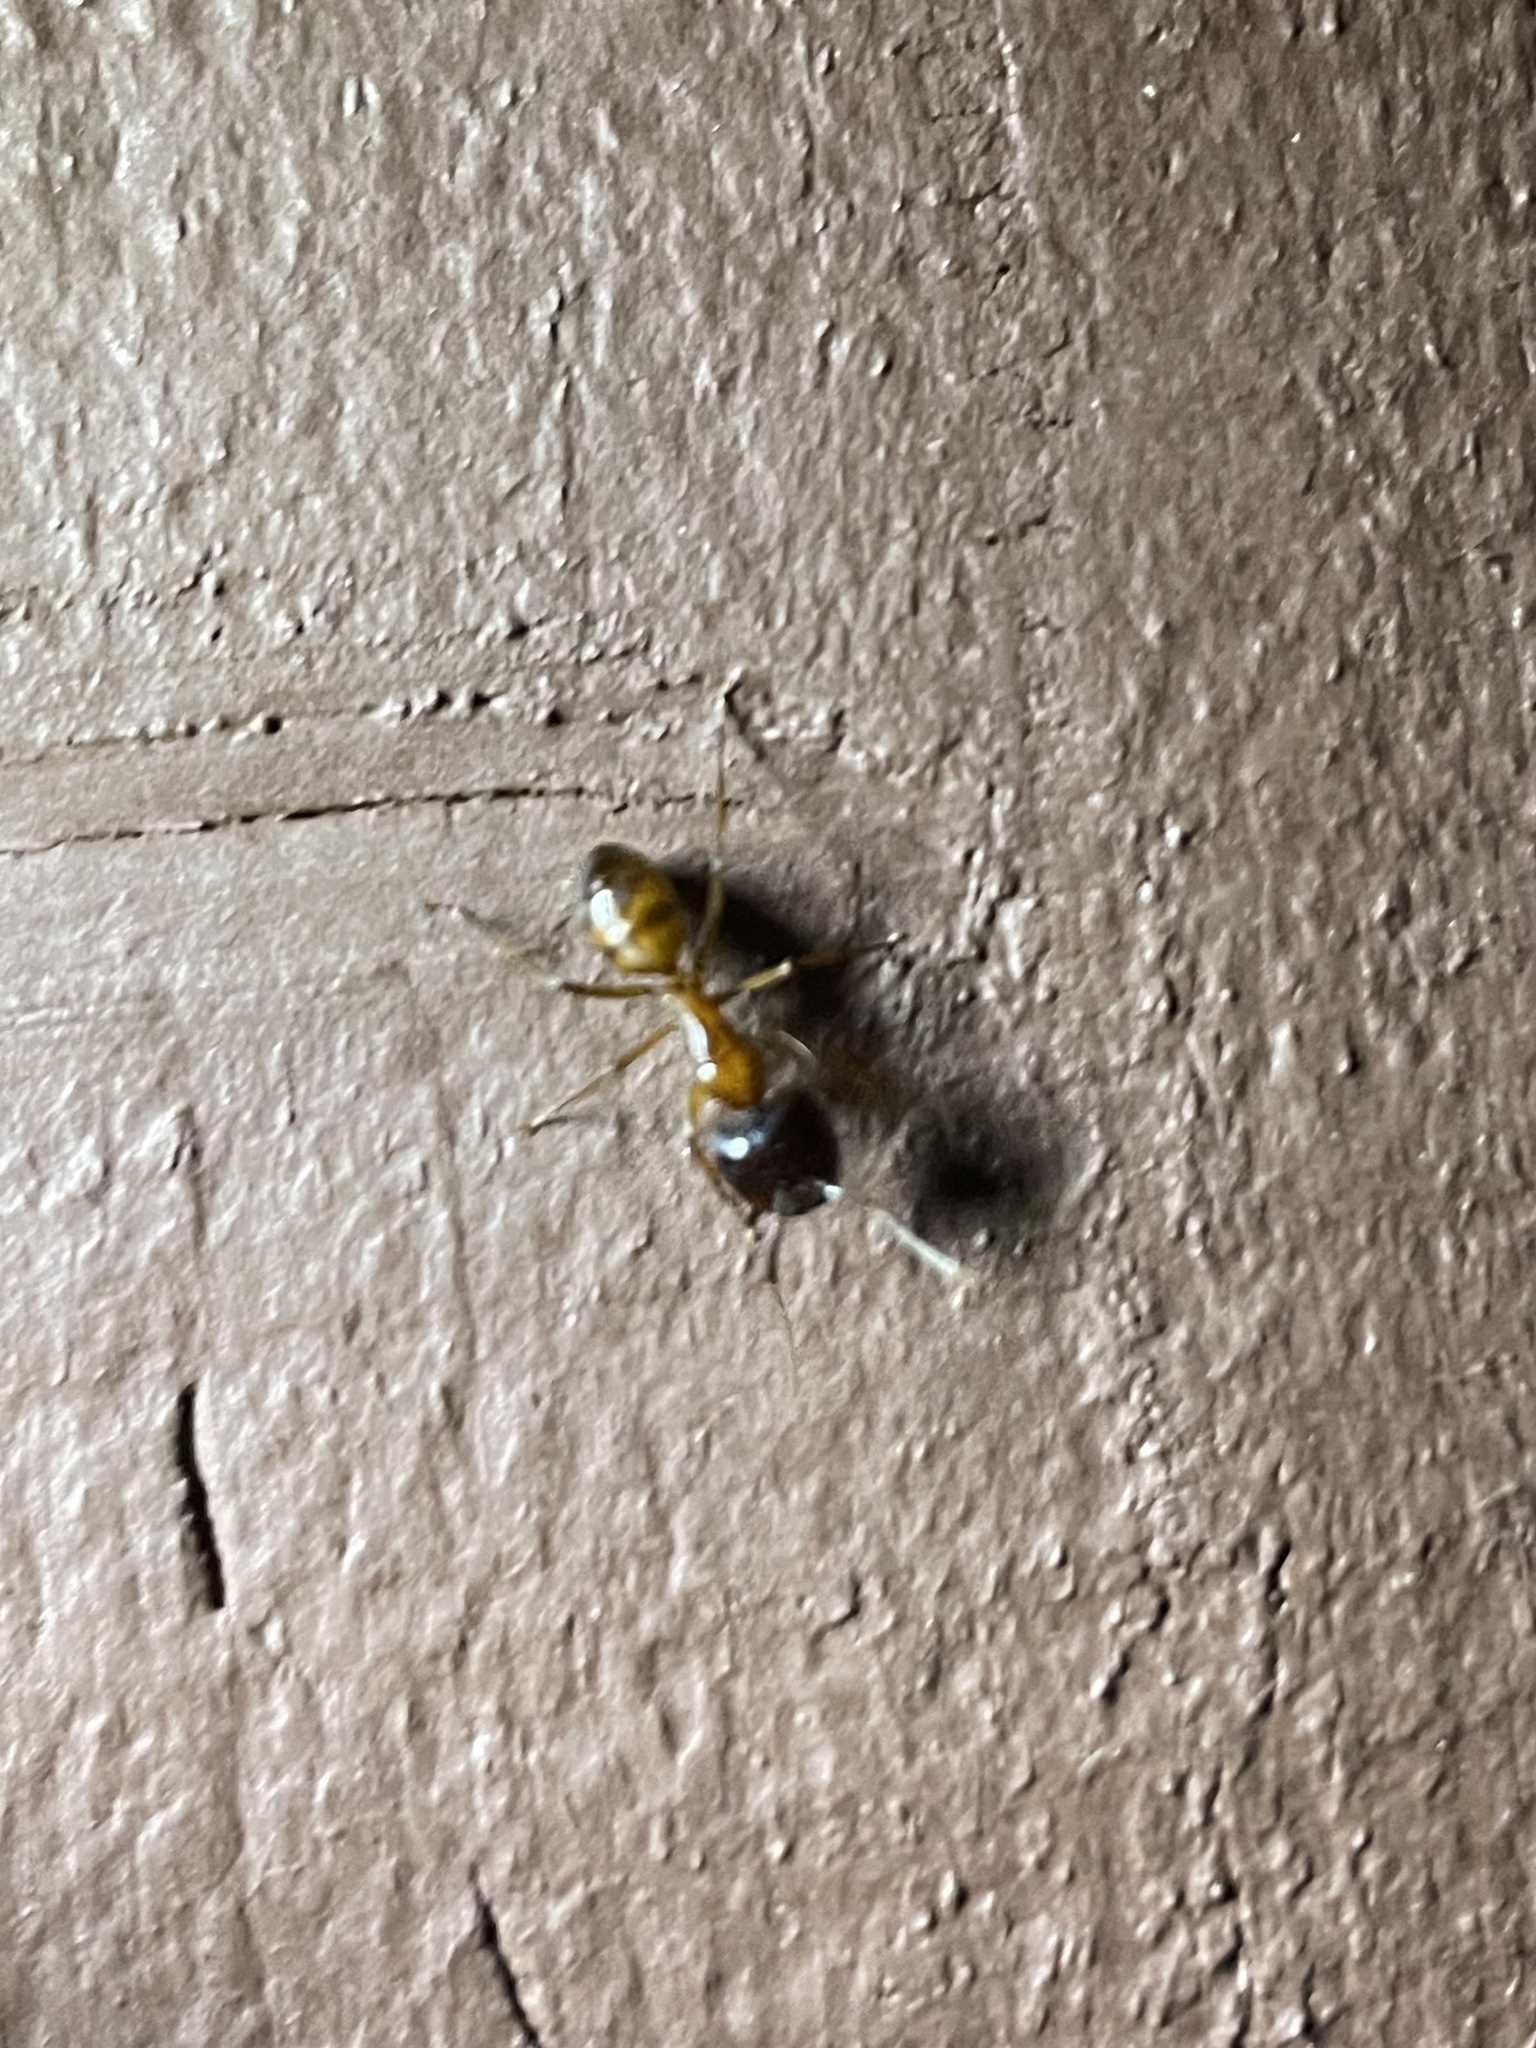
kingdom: Animalia
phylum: Arthropoda
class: Insecta
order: Hymenoptera
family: Formicidae
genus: Camponotus
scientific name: Camponotus sansabeanus
